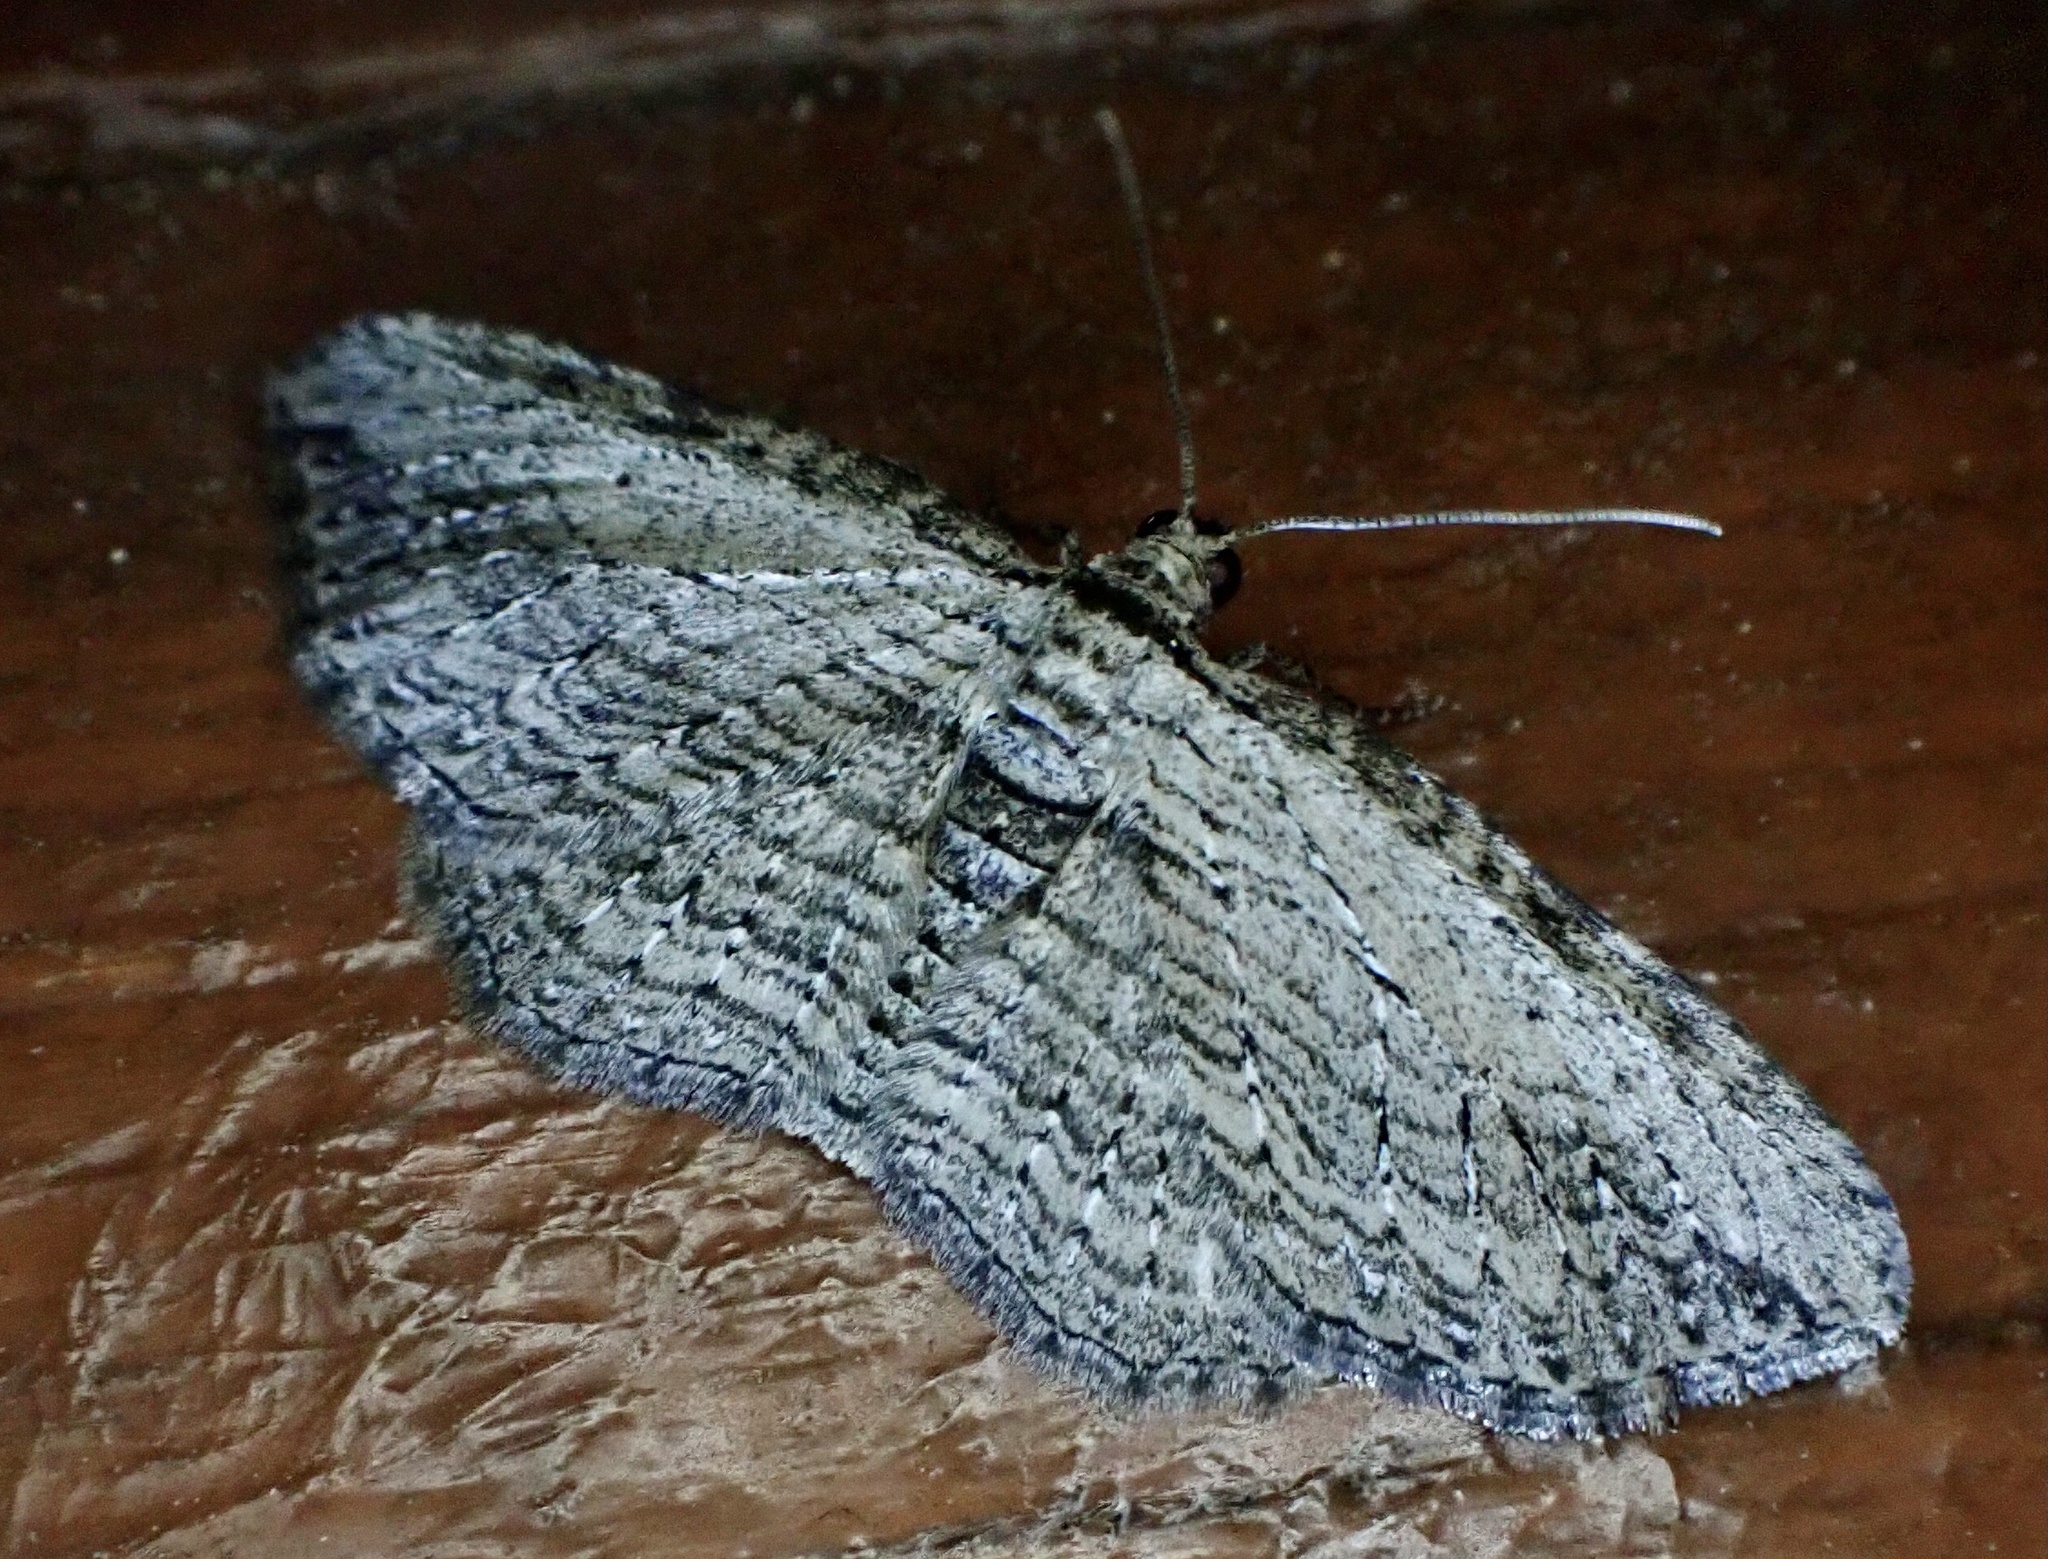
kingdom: Animalia
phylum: Arthropoda
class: Insecta
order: Lepidoptera
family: Geometridae
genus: Horisme
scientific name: Horisme intestinata
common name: Brown bark carpet
